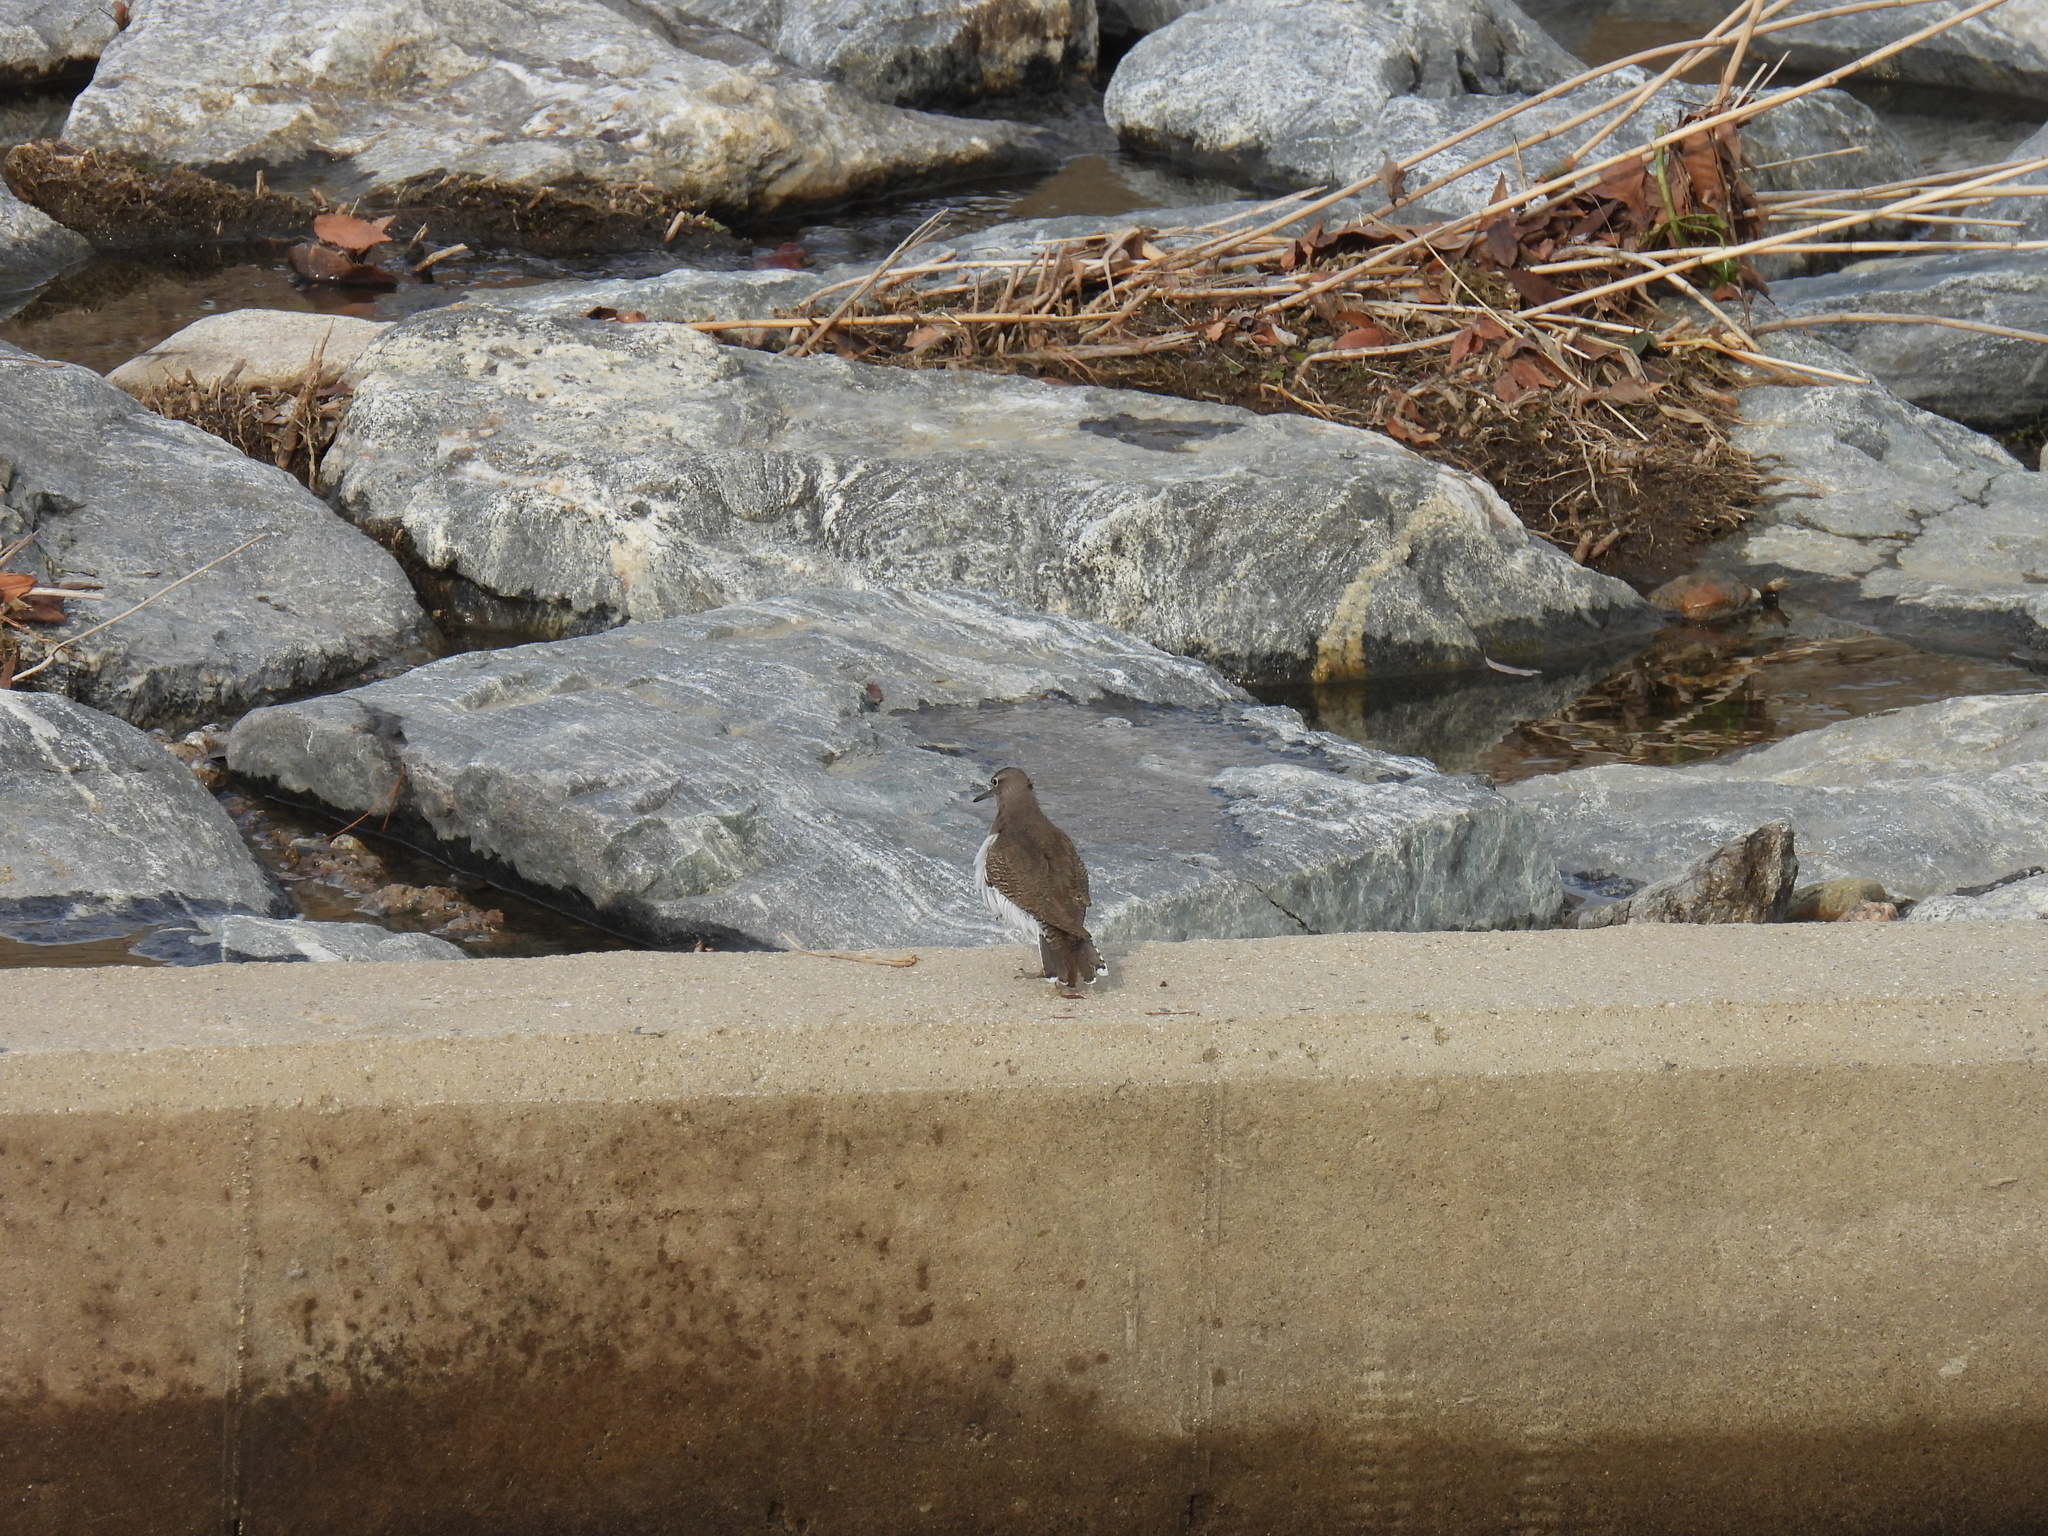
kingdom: Animalia
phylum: Chordata
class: Aves
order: Charadriiformes
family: Scolopacidae
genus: Actitis
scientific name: Actitis hypoleucos
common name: Common sandpiper
